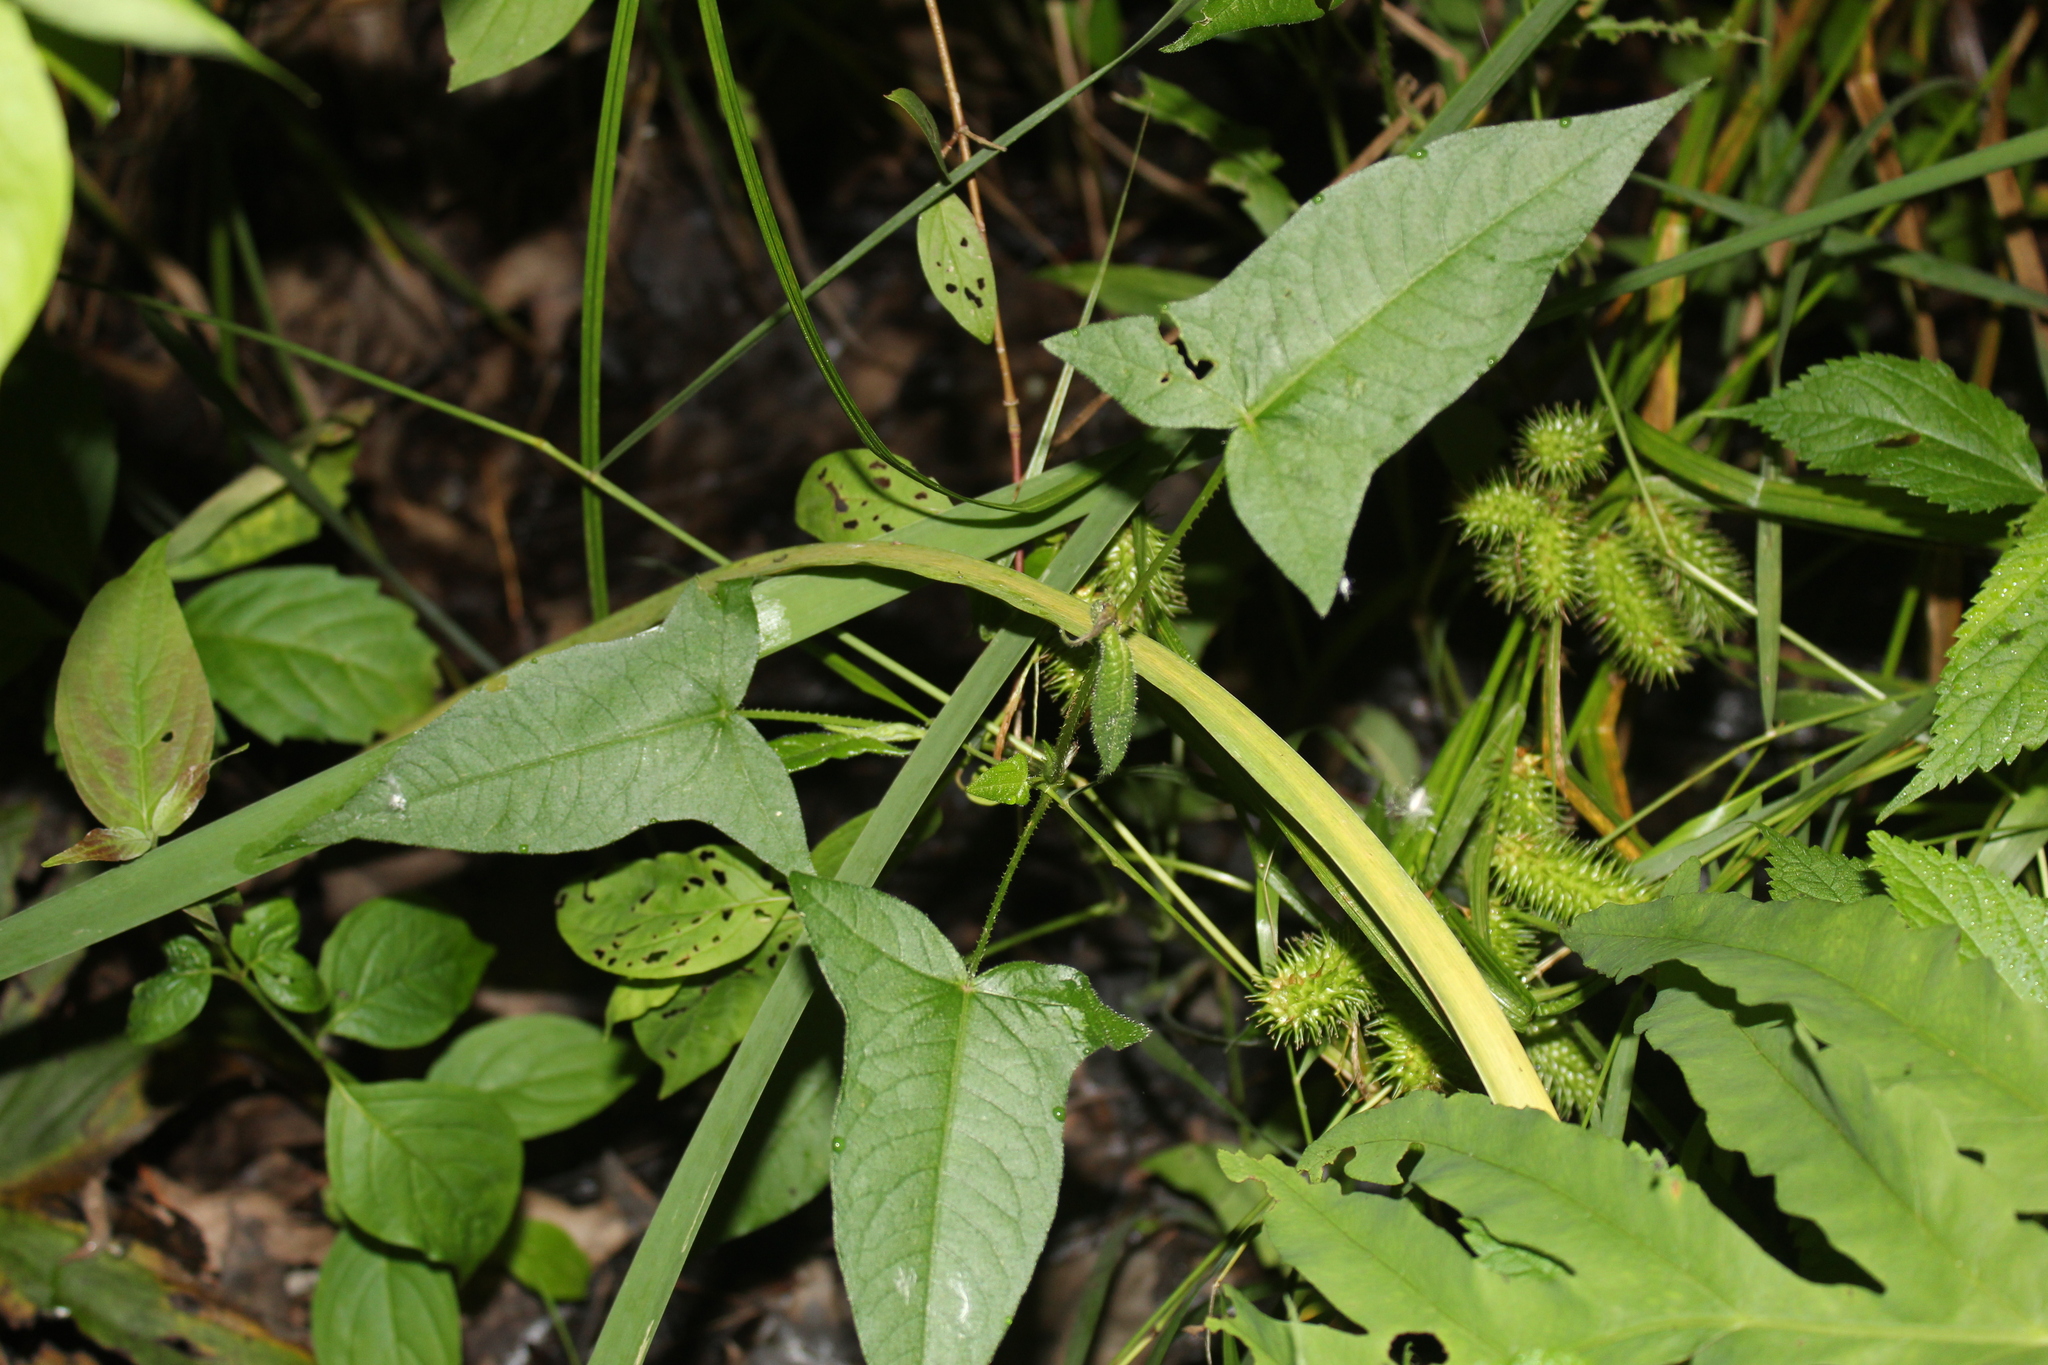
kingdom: Plantae
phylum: Tracheophyta
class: Magnoliopsida
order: Caryophyllales
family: Polygonaceae
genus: Persicaria
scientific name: Persicaria arifolia
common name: Halberd-leaved tear-thumb
